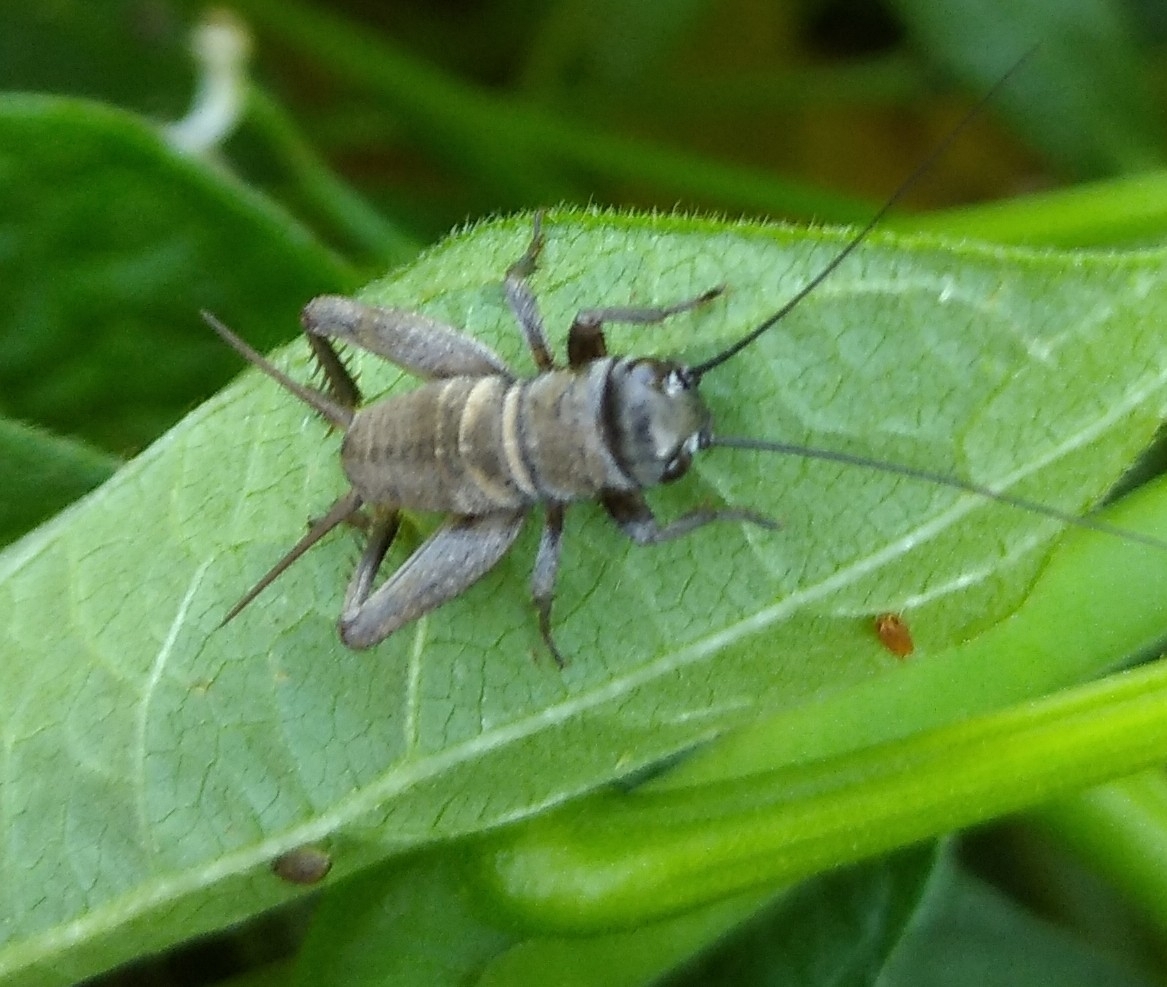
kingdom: Animalia
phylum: Arthropoda
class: Insecta
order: Orthoptera
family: Gryllidae
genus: Melanogryllus
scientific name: Melanogryllus desertus
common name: Desert cricket
